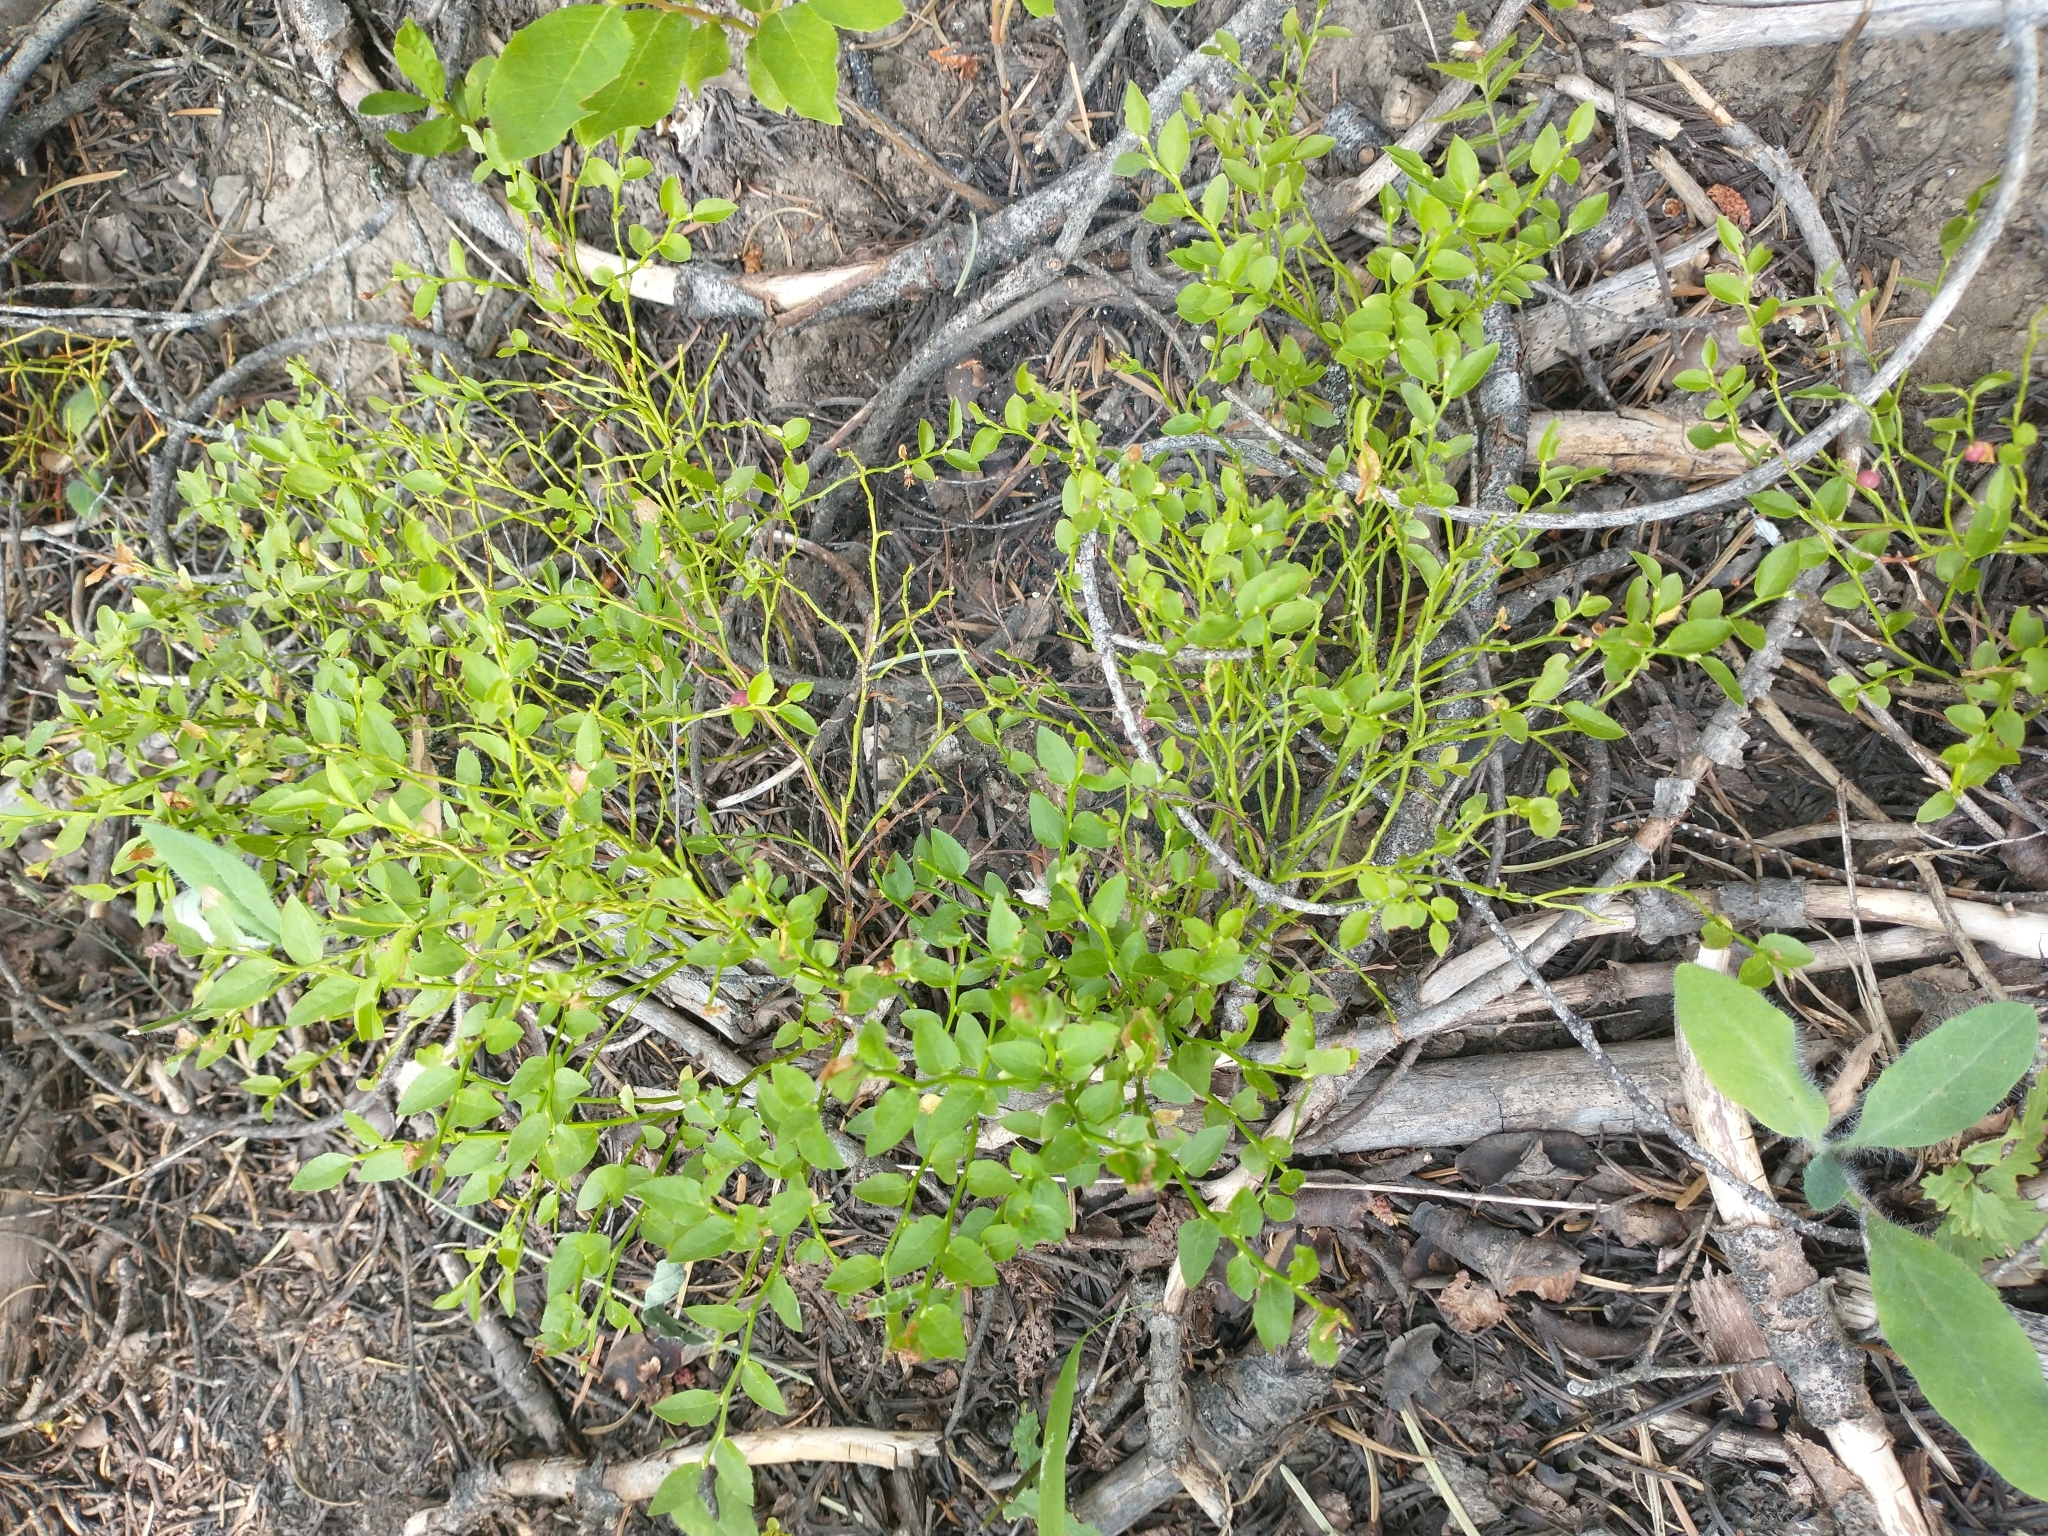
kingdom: Plantae
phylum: Tracheophyta
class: Magnoliopsida
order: Ericales
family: Ericaceae
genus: Vaccinium
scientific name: Vaccinium scoparium
